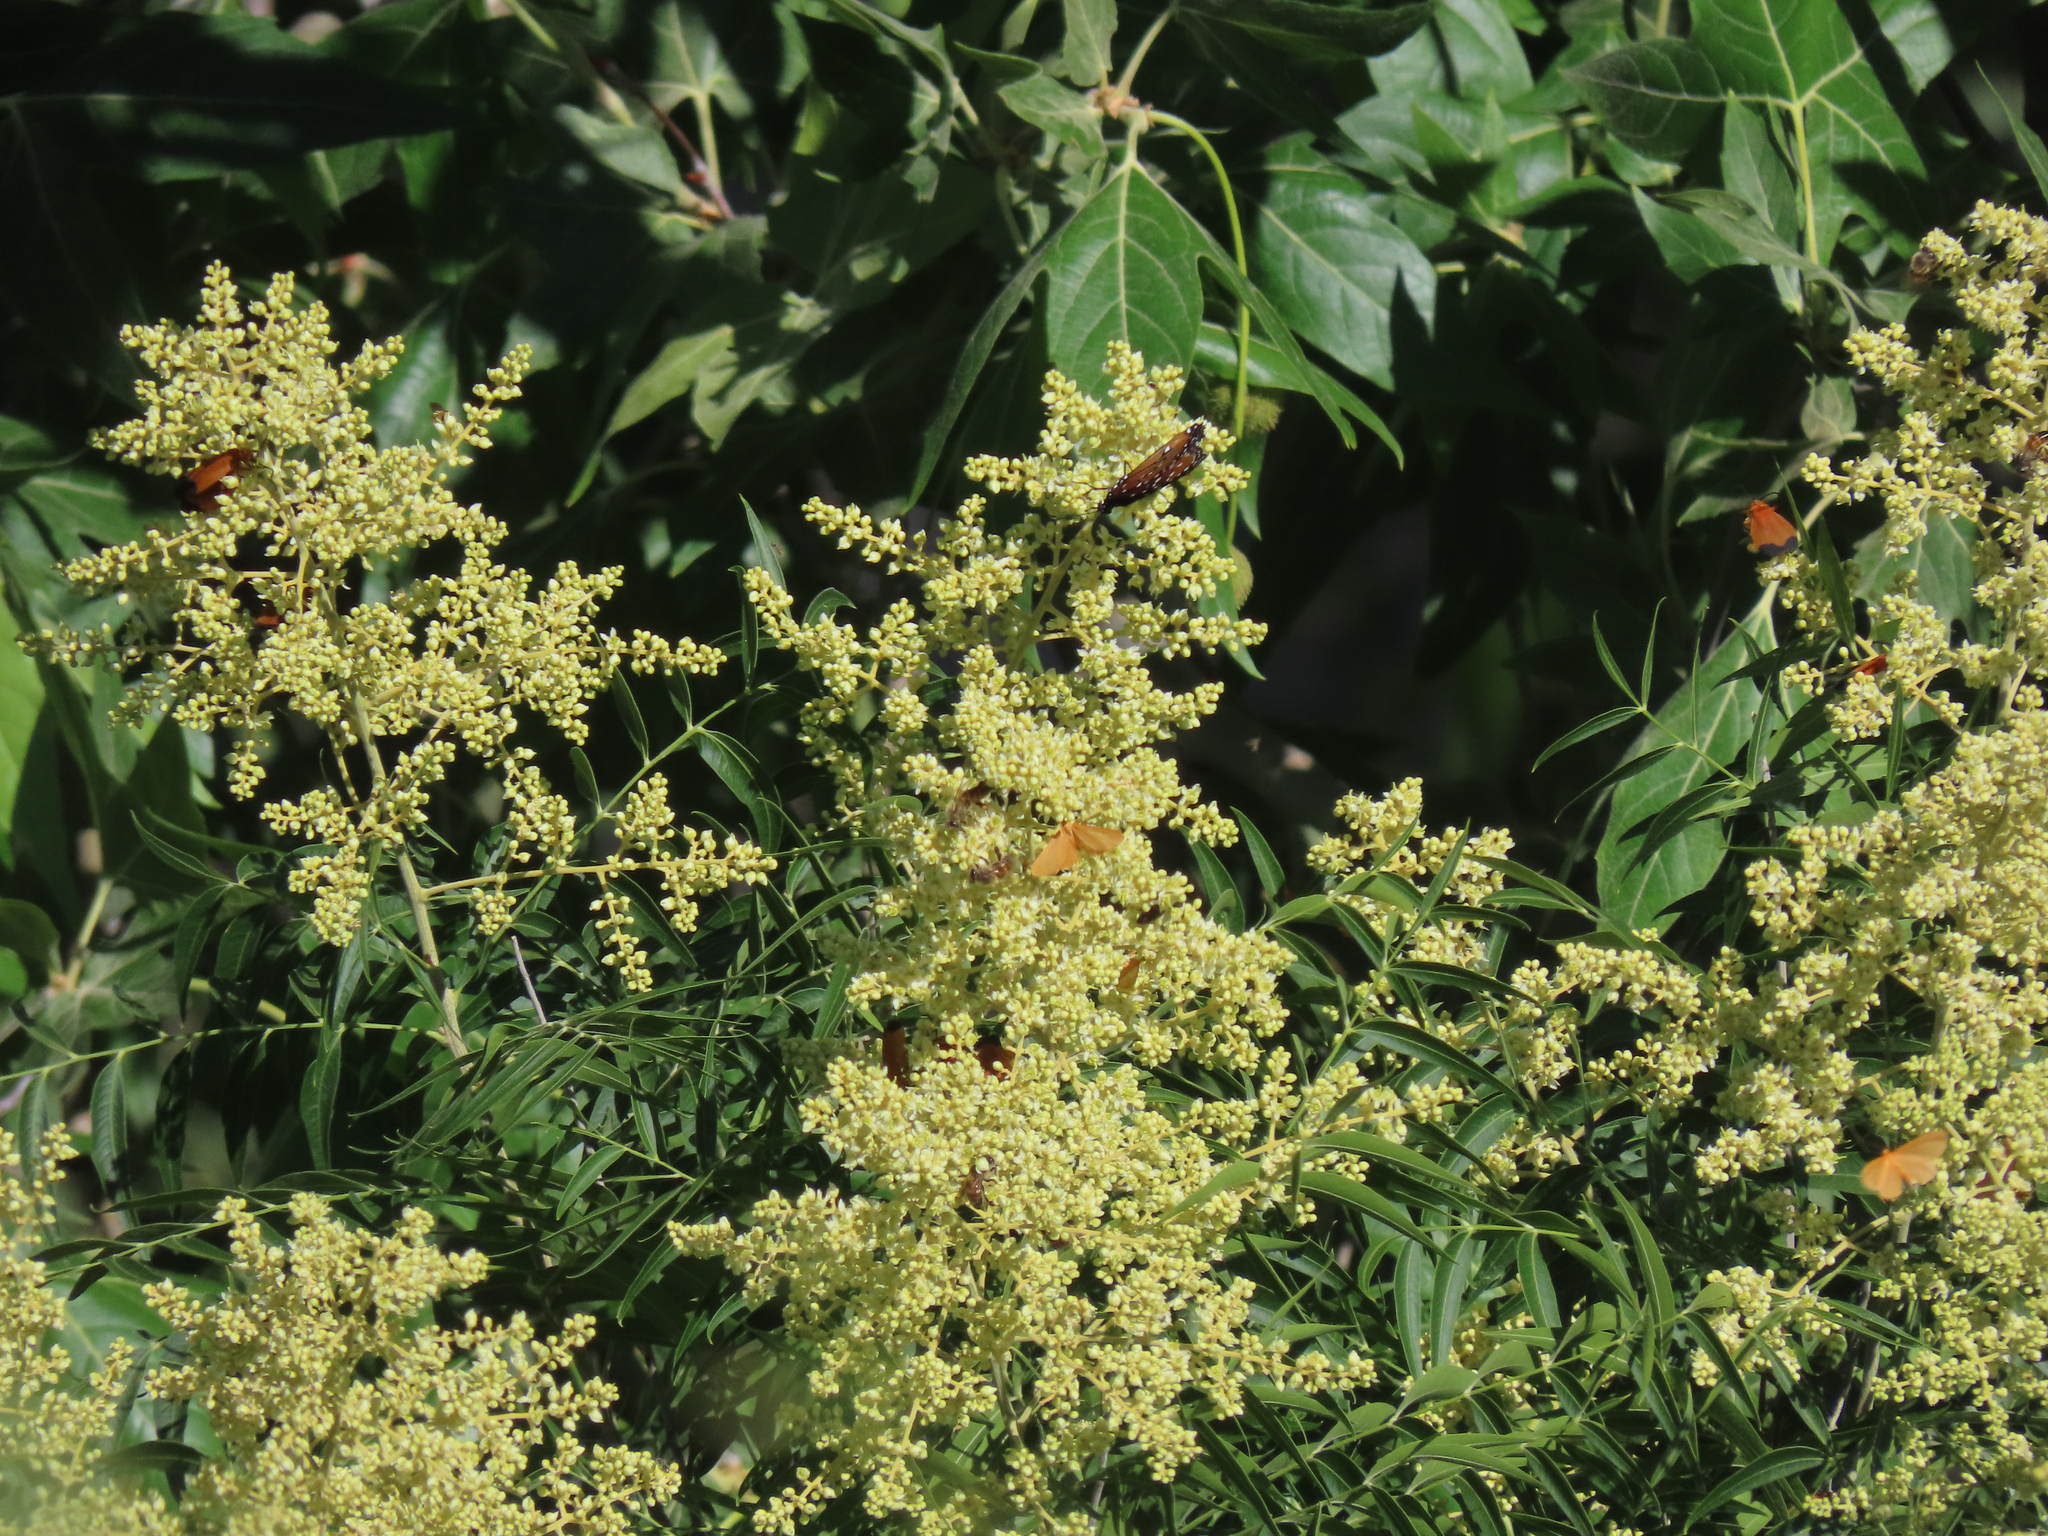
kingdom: Plantae
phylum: Tracheophyta
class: Magnoliopsida
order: Sapindales
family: Sapindaceae
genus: Sapindus
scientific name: Sapindus drummondii
